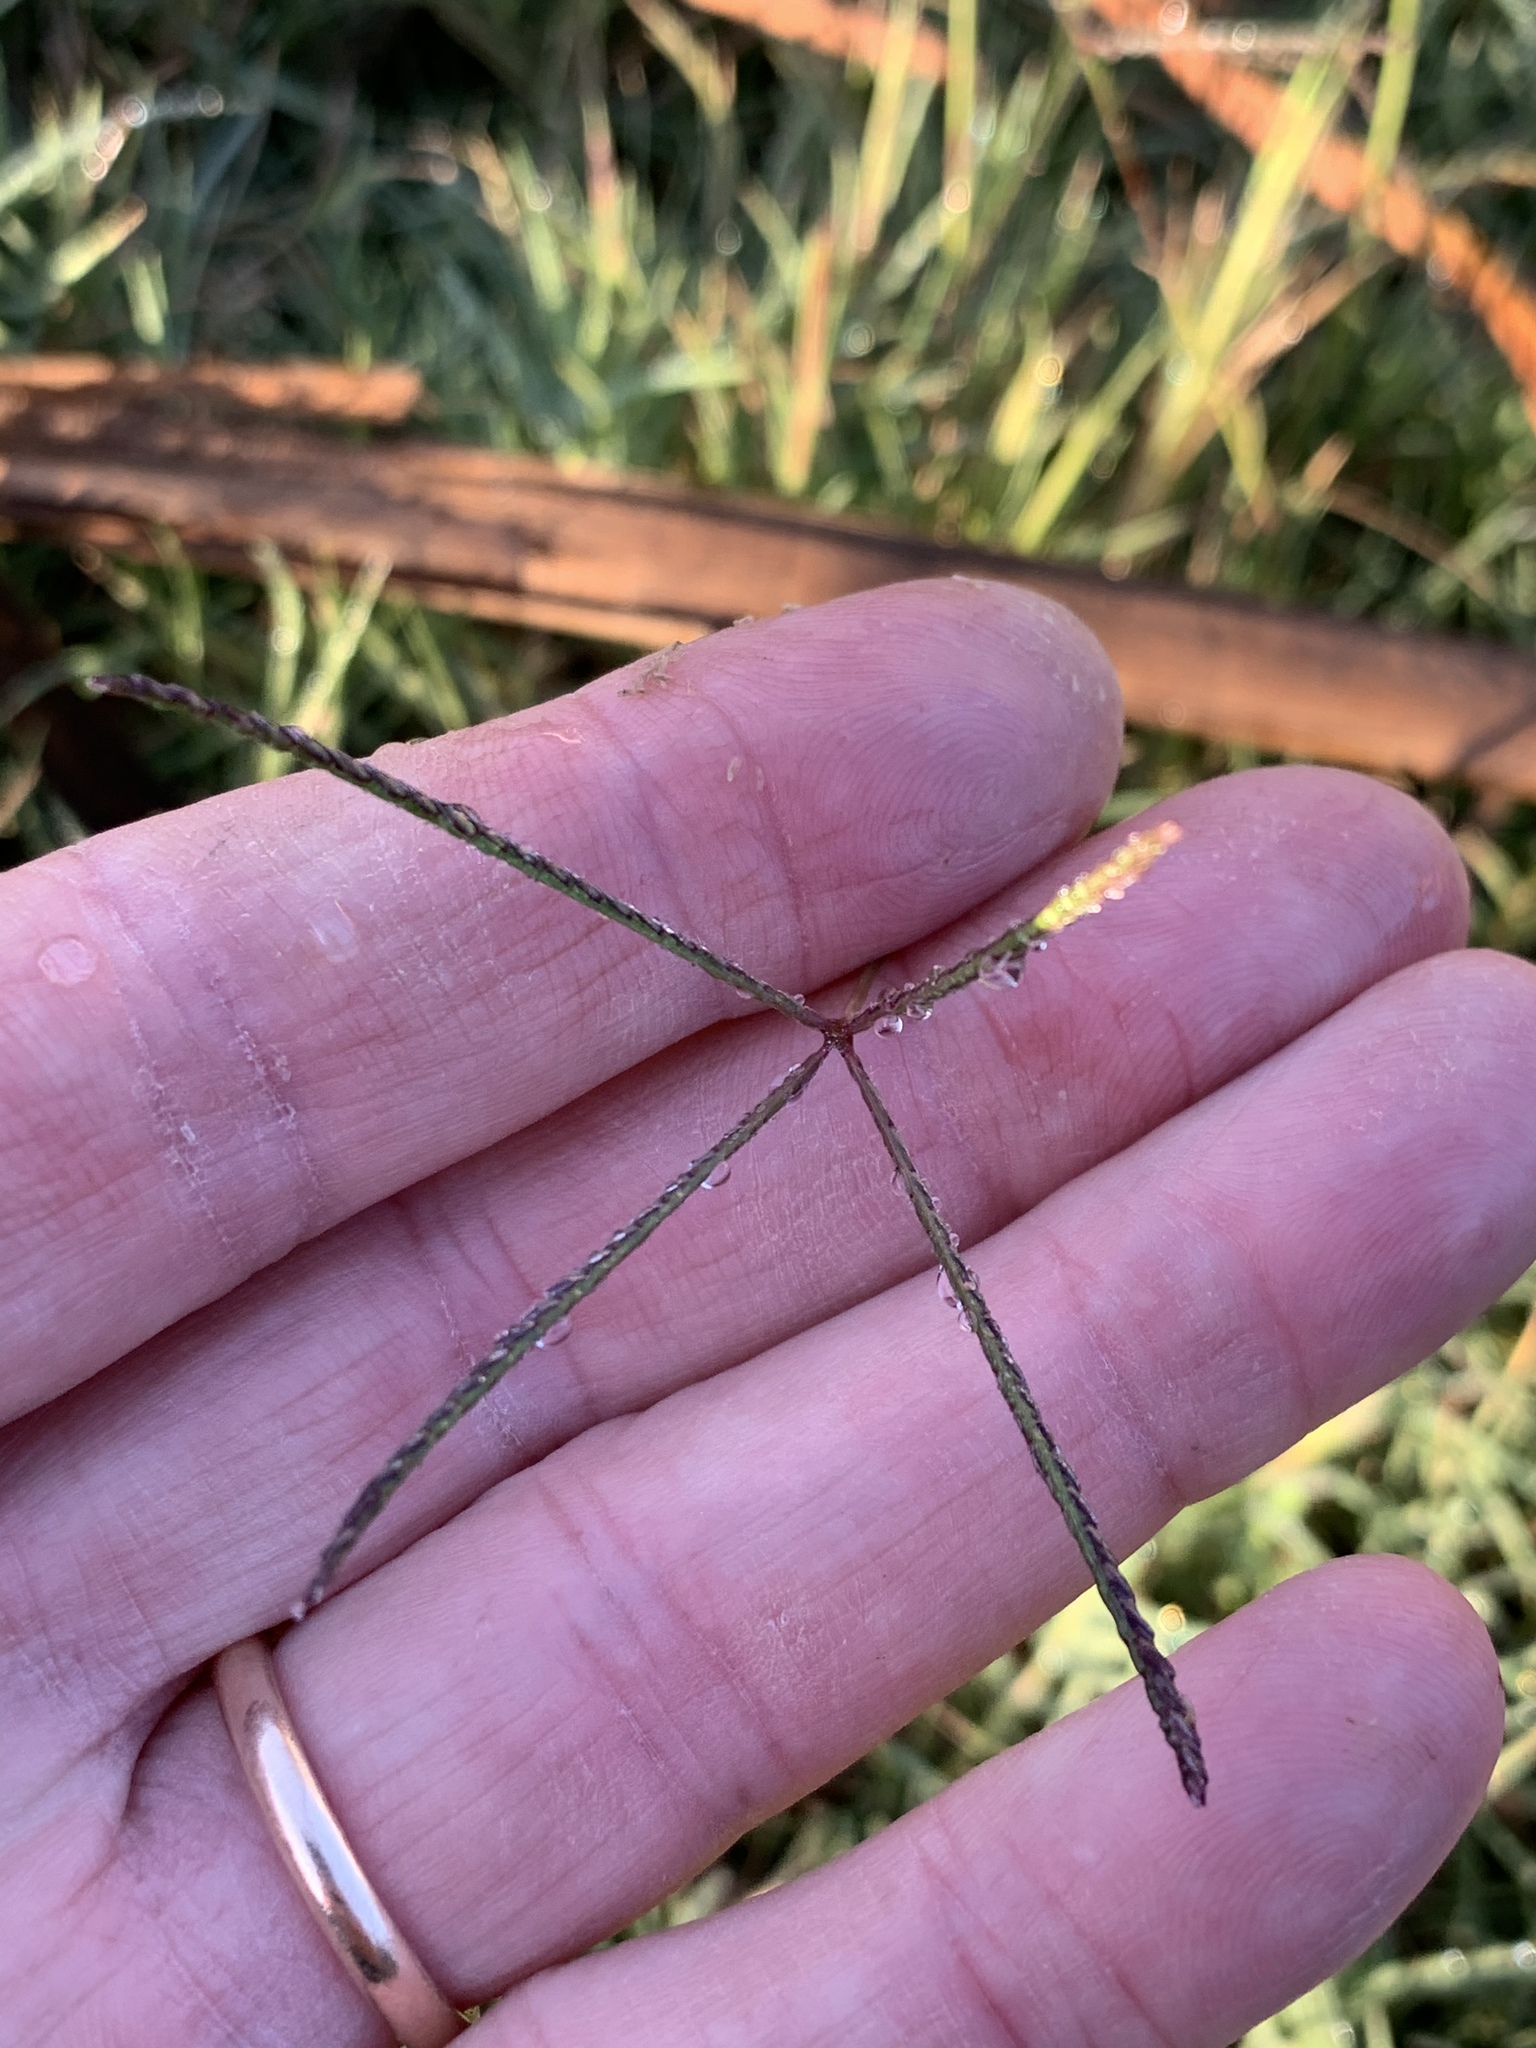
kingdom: Plantae
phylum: Tracheophyta
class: Liliopsida
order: Poales
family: Poaceae
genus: Cynodon
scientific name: Cynodon dactylon
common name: Bermuda grass
